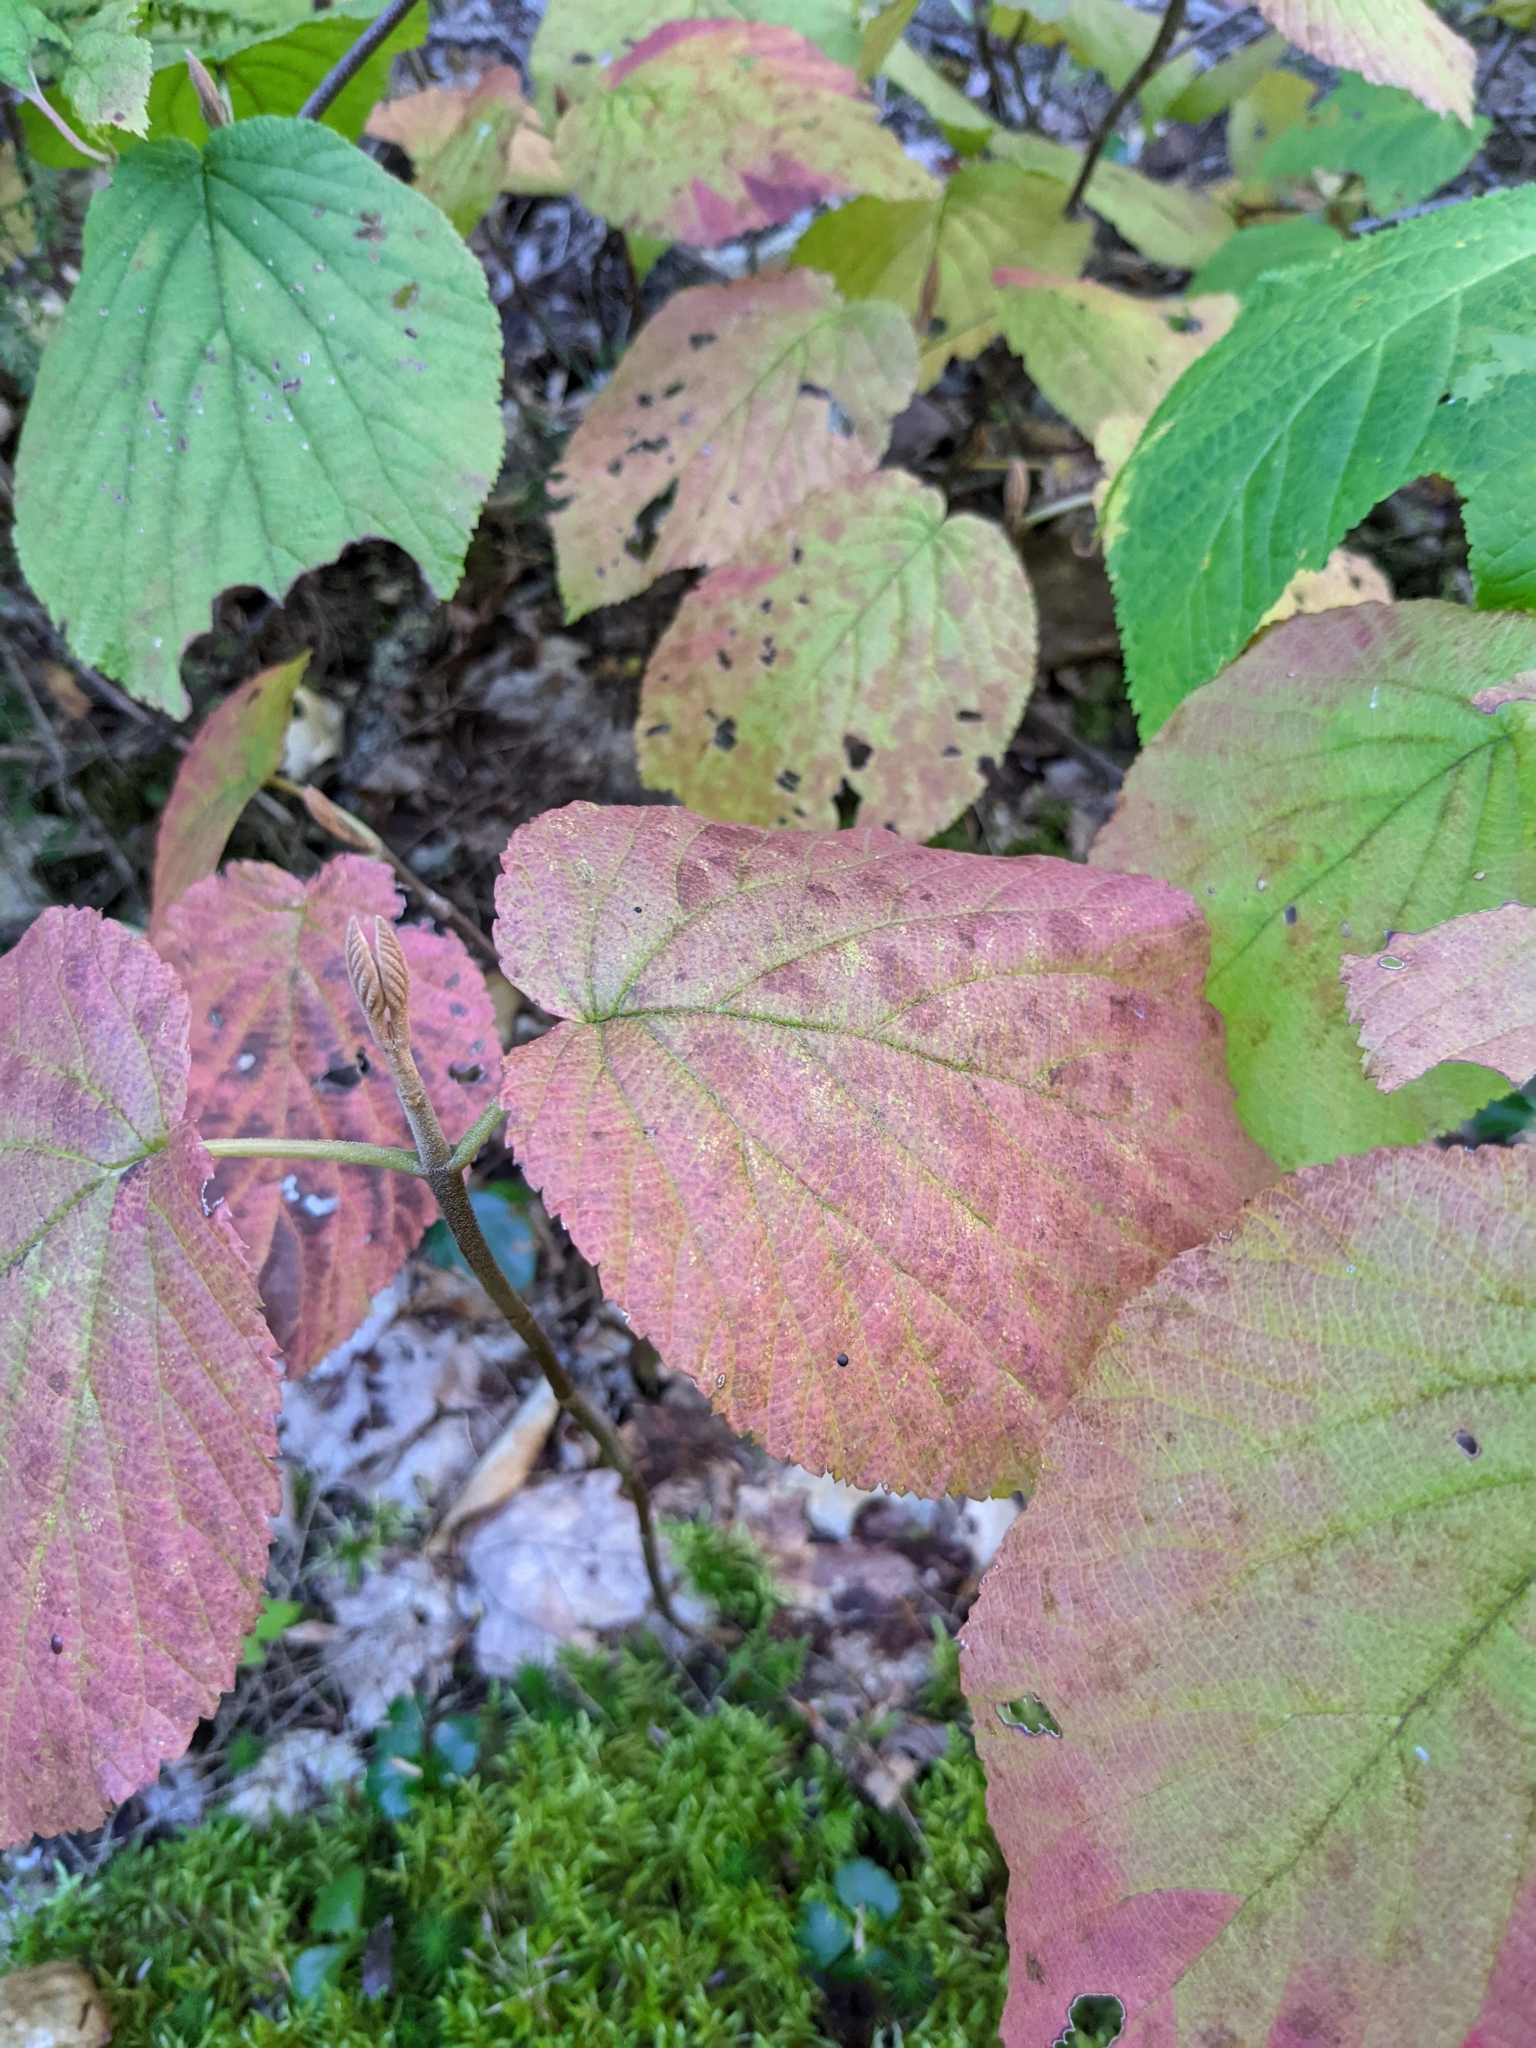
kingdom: Plantae
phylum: Tracheophyta
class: Magnoliopsida
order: Dipsacales
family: Viburnaceae
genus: Viburnum
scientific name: Viburnum lantanoides
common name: Hobblebush
